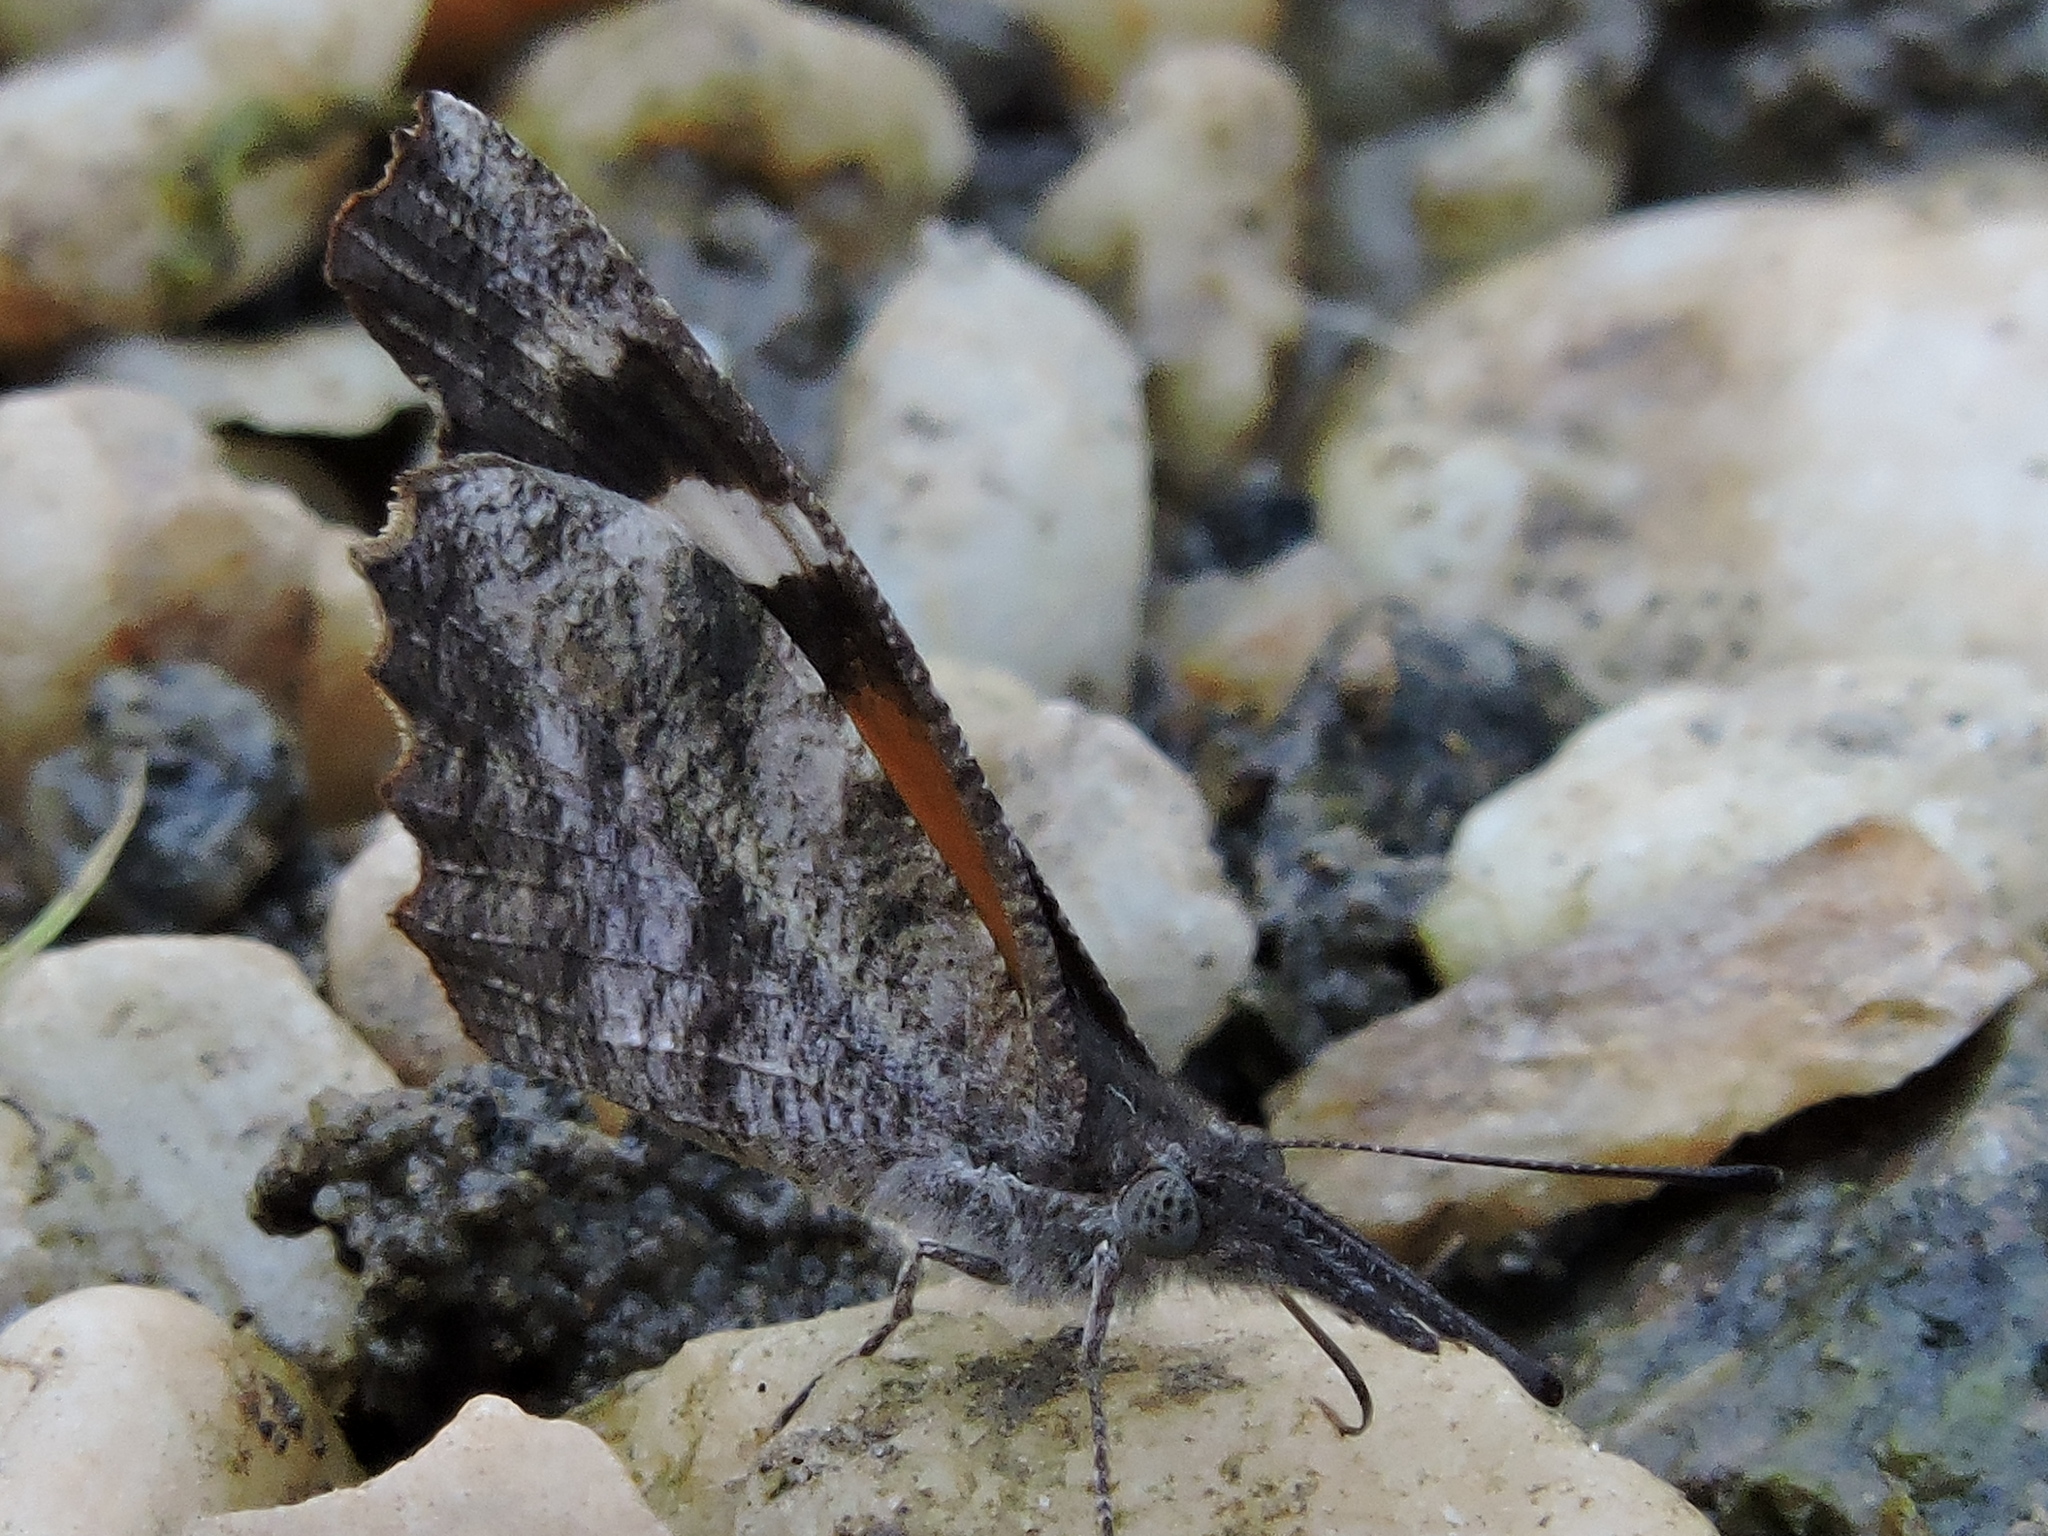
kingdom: Animalia
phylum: Arthropoda
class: Insecta
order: Lepidoptera
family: Nymphalidae
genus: Libytheana
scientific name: Libytheana carinenta
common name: American snout
